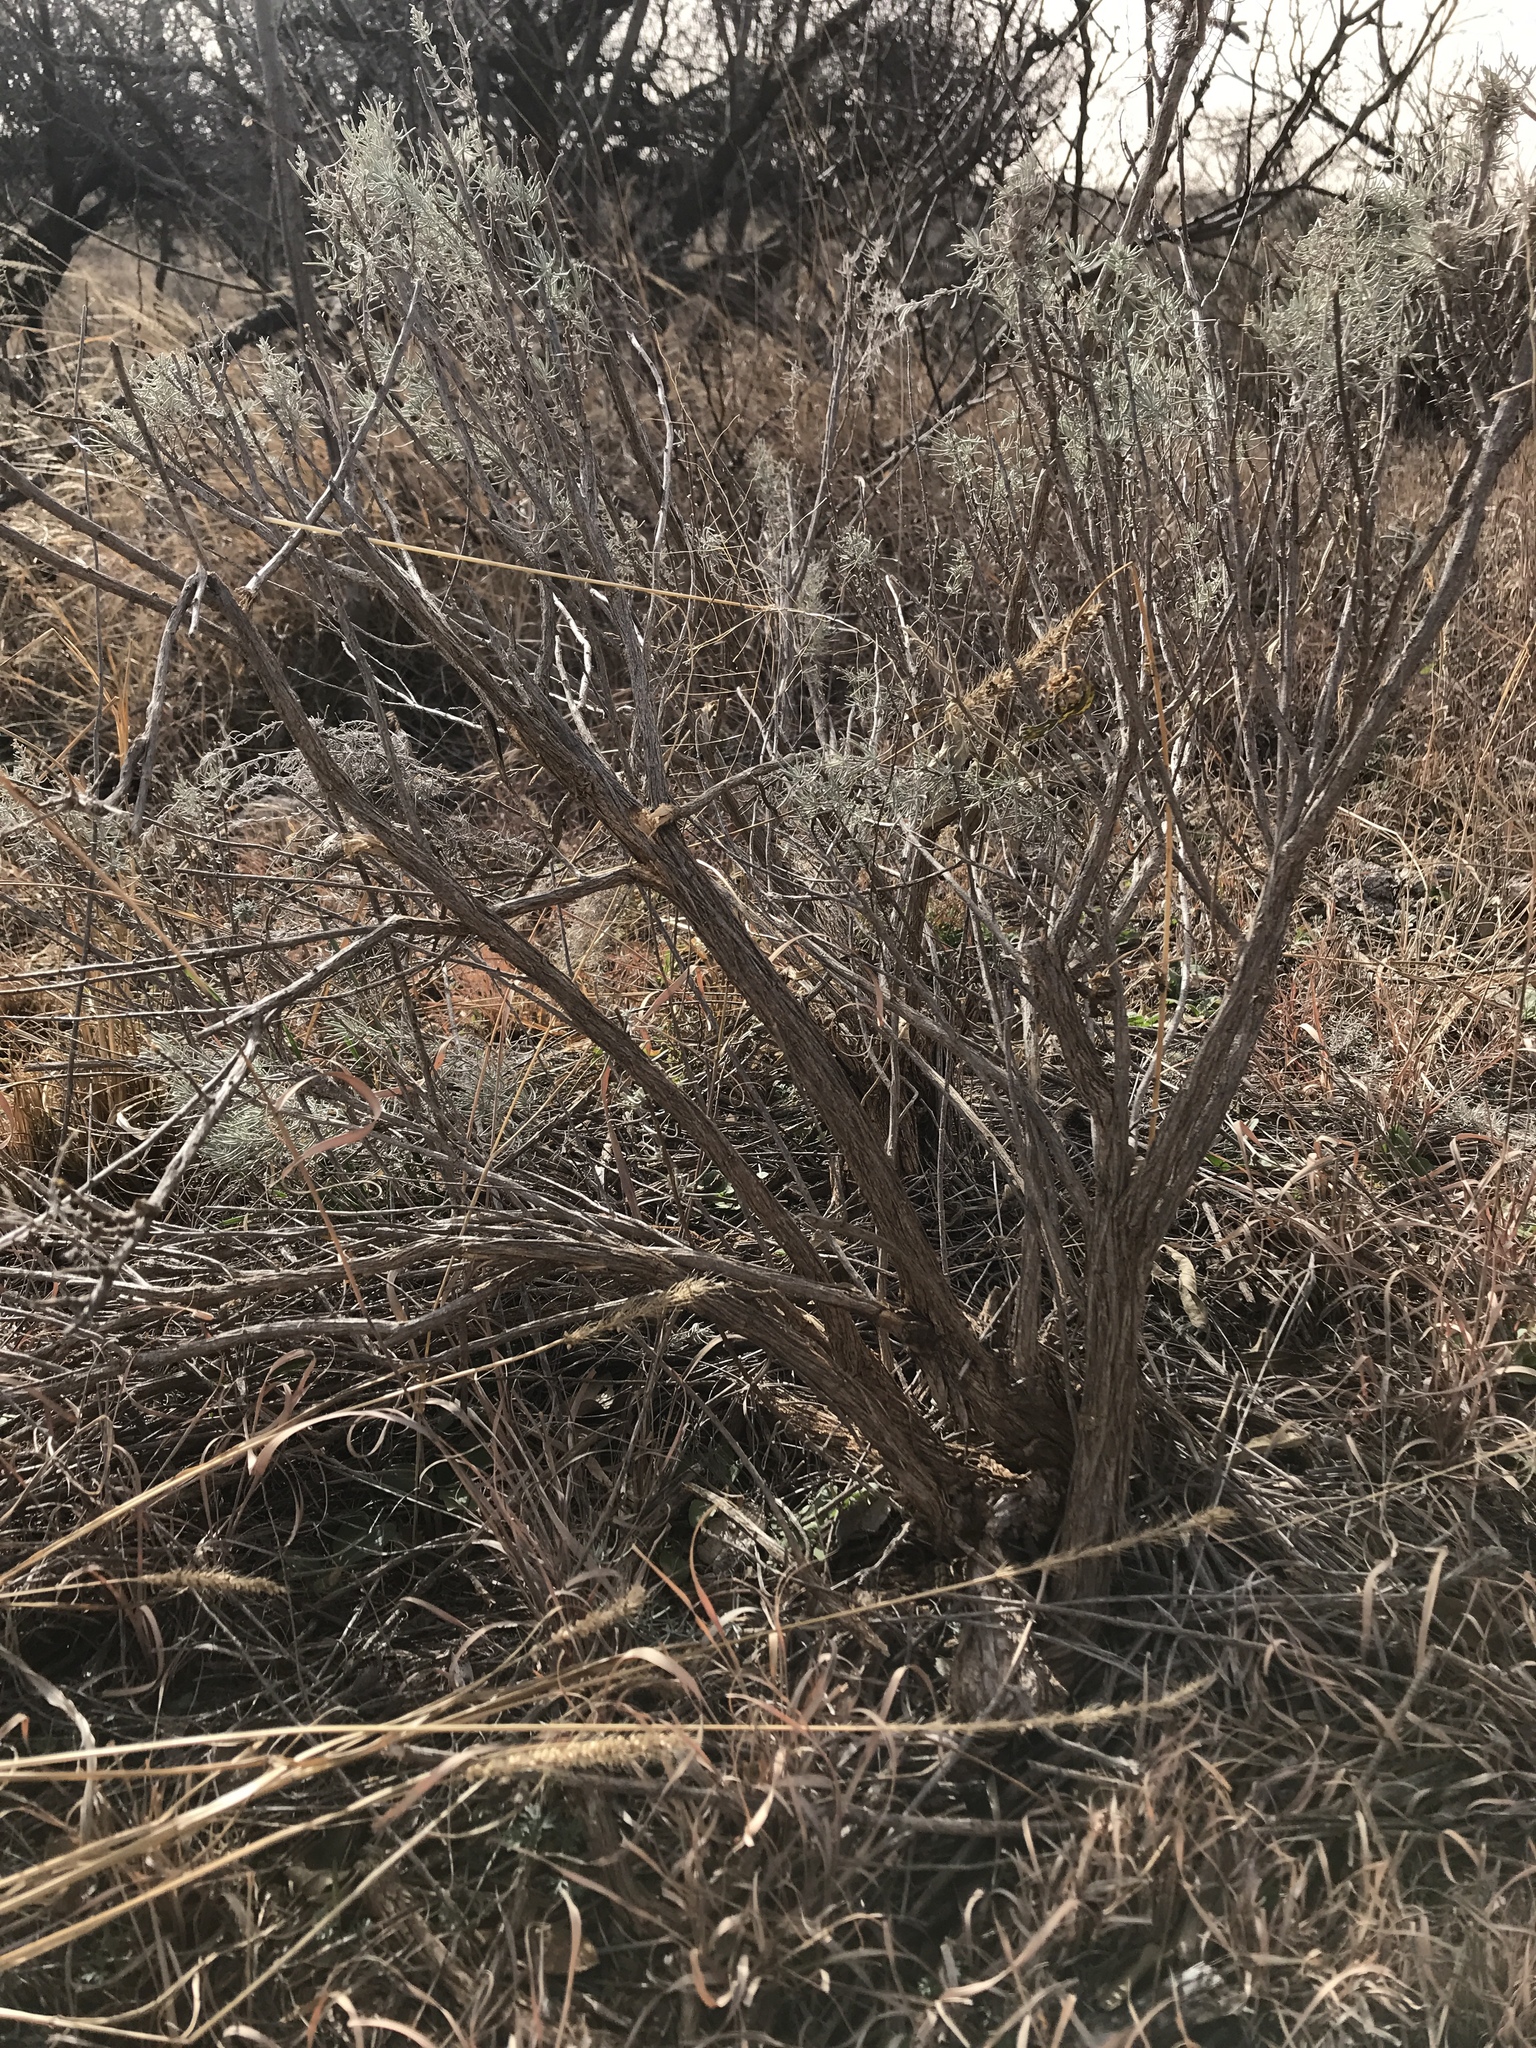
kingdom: Plantae
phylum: Tracheophyta
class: Magnoliopsida
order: Asterales
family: Asteraceae
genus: Artemisia
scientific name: Artemisia filifolia
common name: Sand-sage
